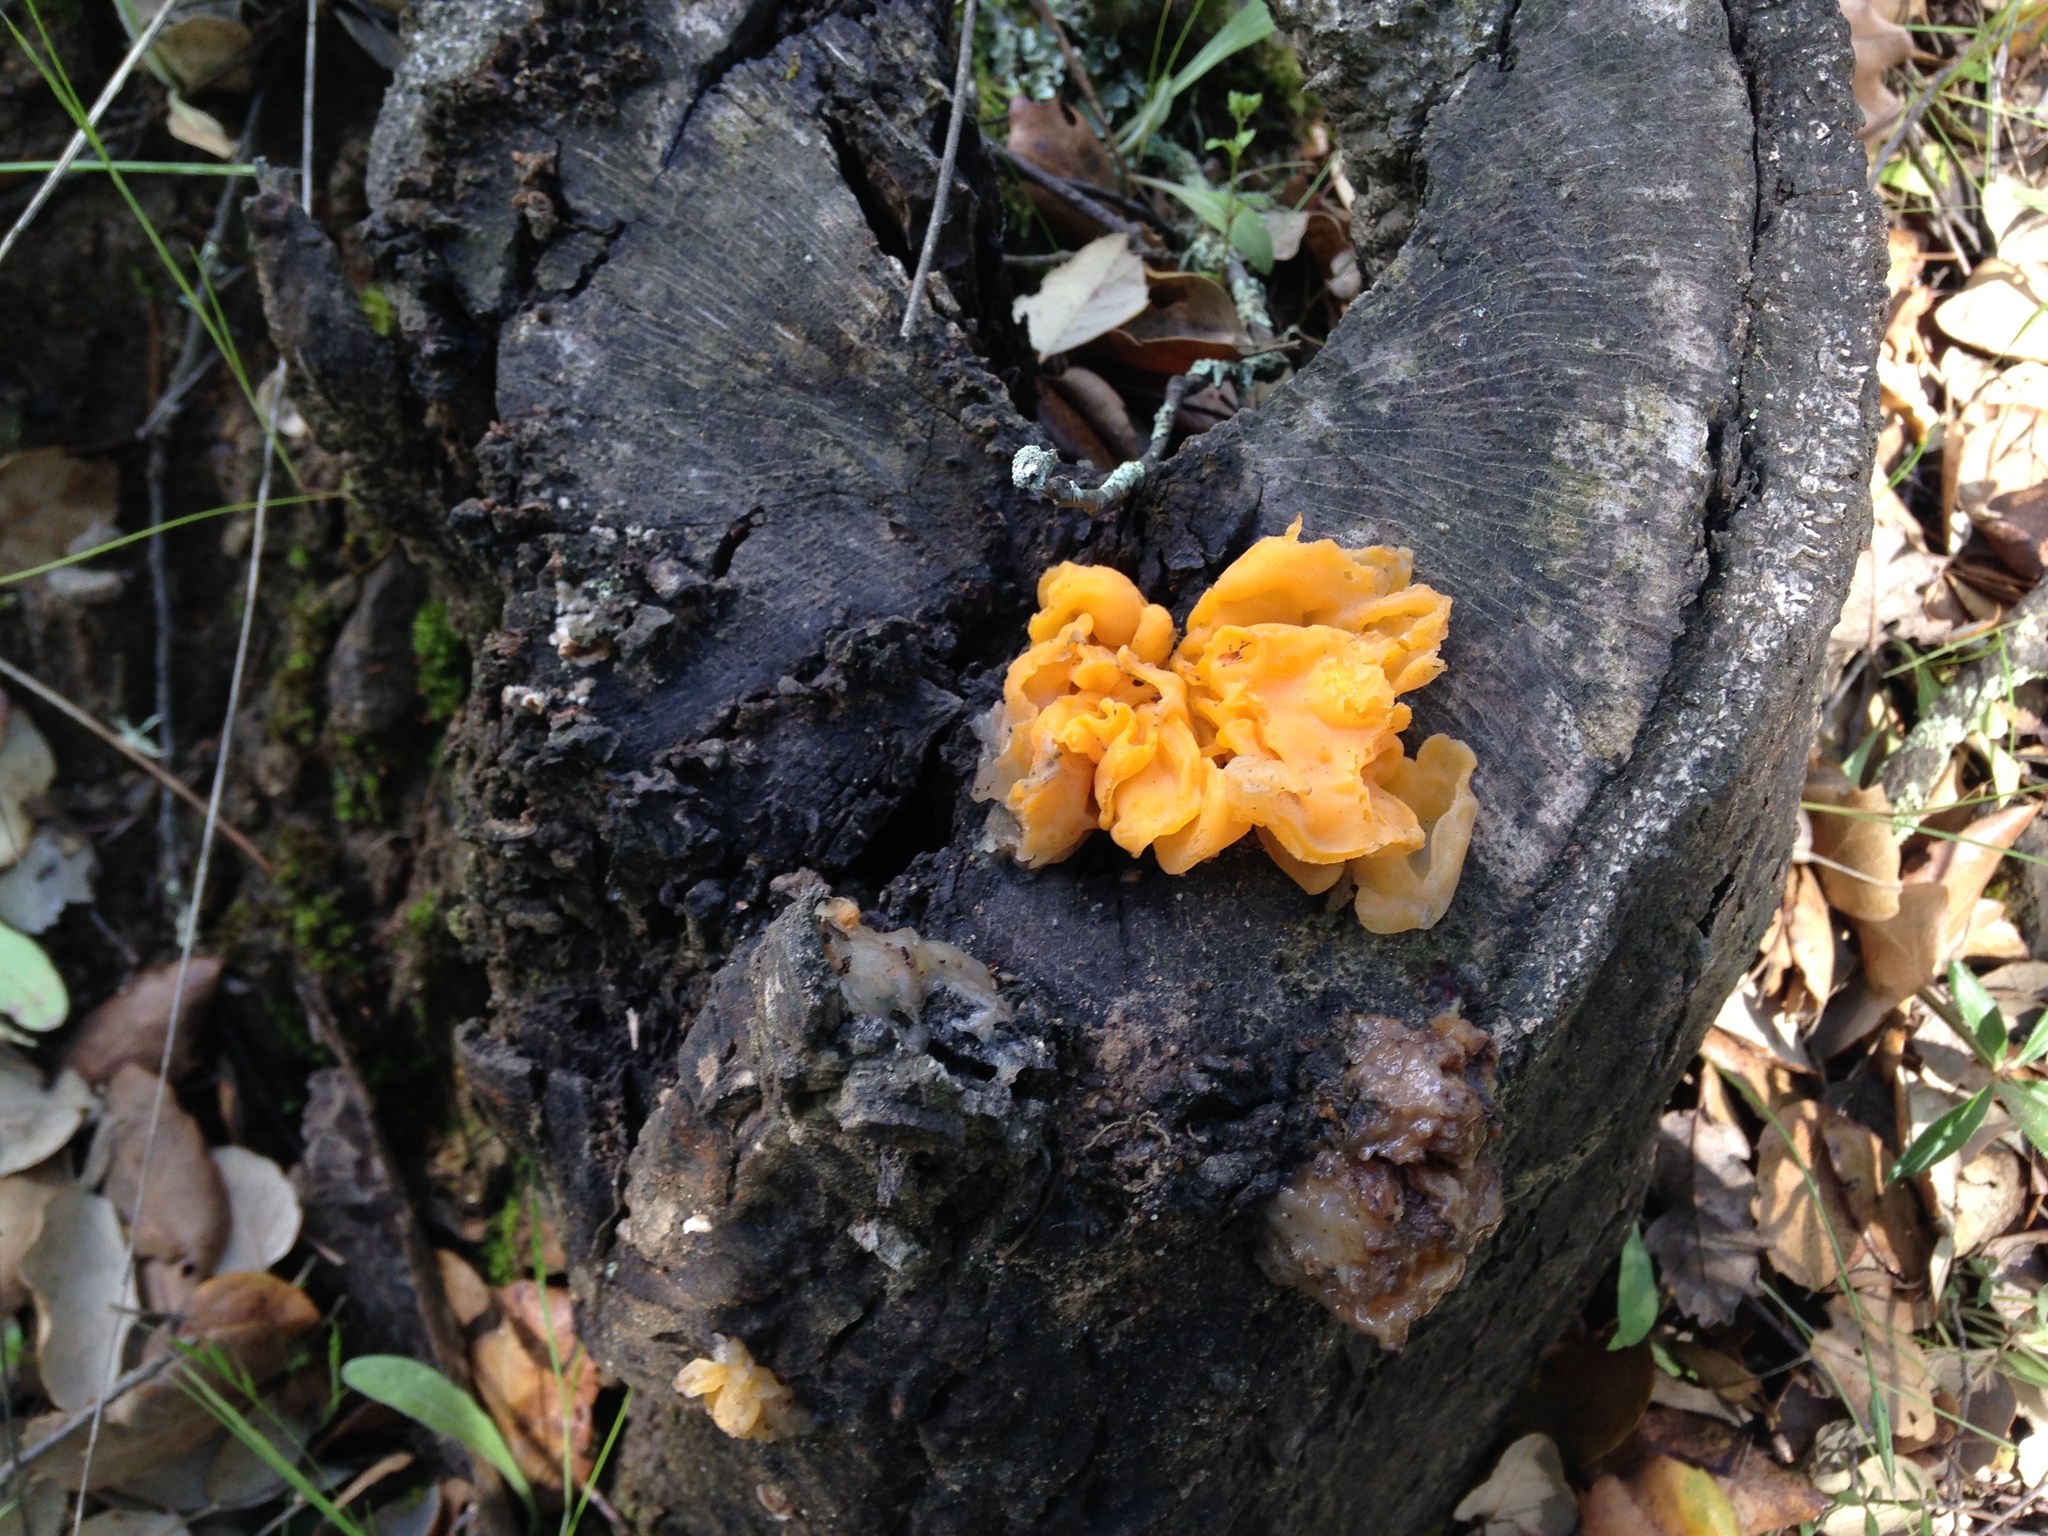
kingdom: Fungi
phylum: Basidiomycota
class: Tremellomycetes
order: Tremellales
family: Naemateliaceae
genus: Naematelia
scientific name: Naematelia aurantia
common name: Golden ear
